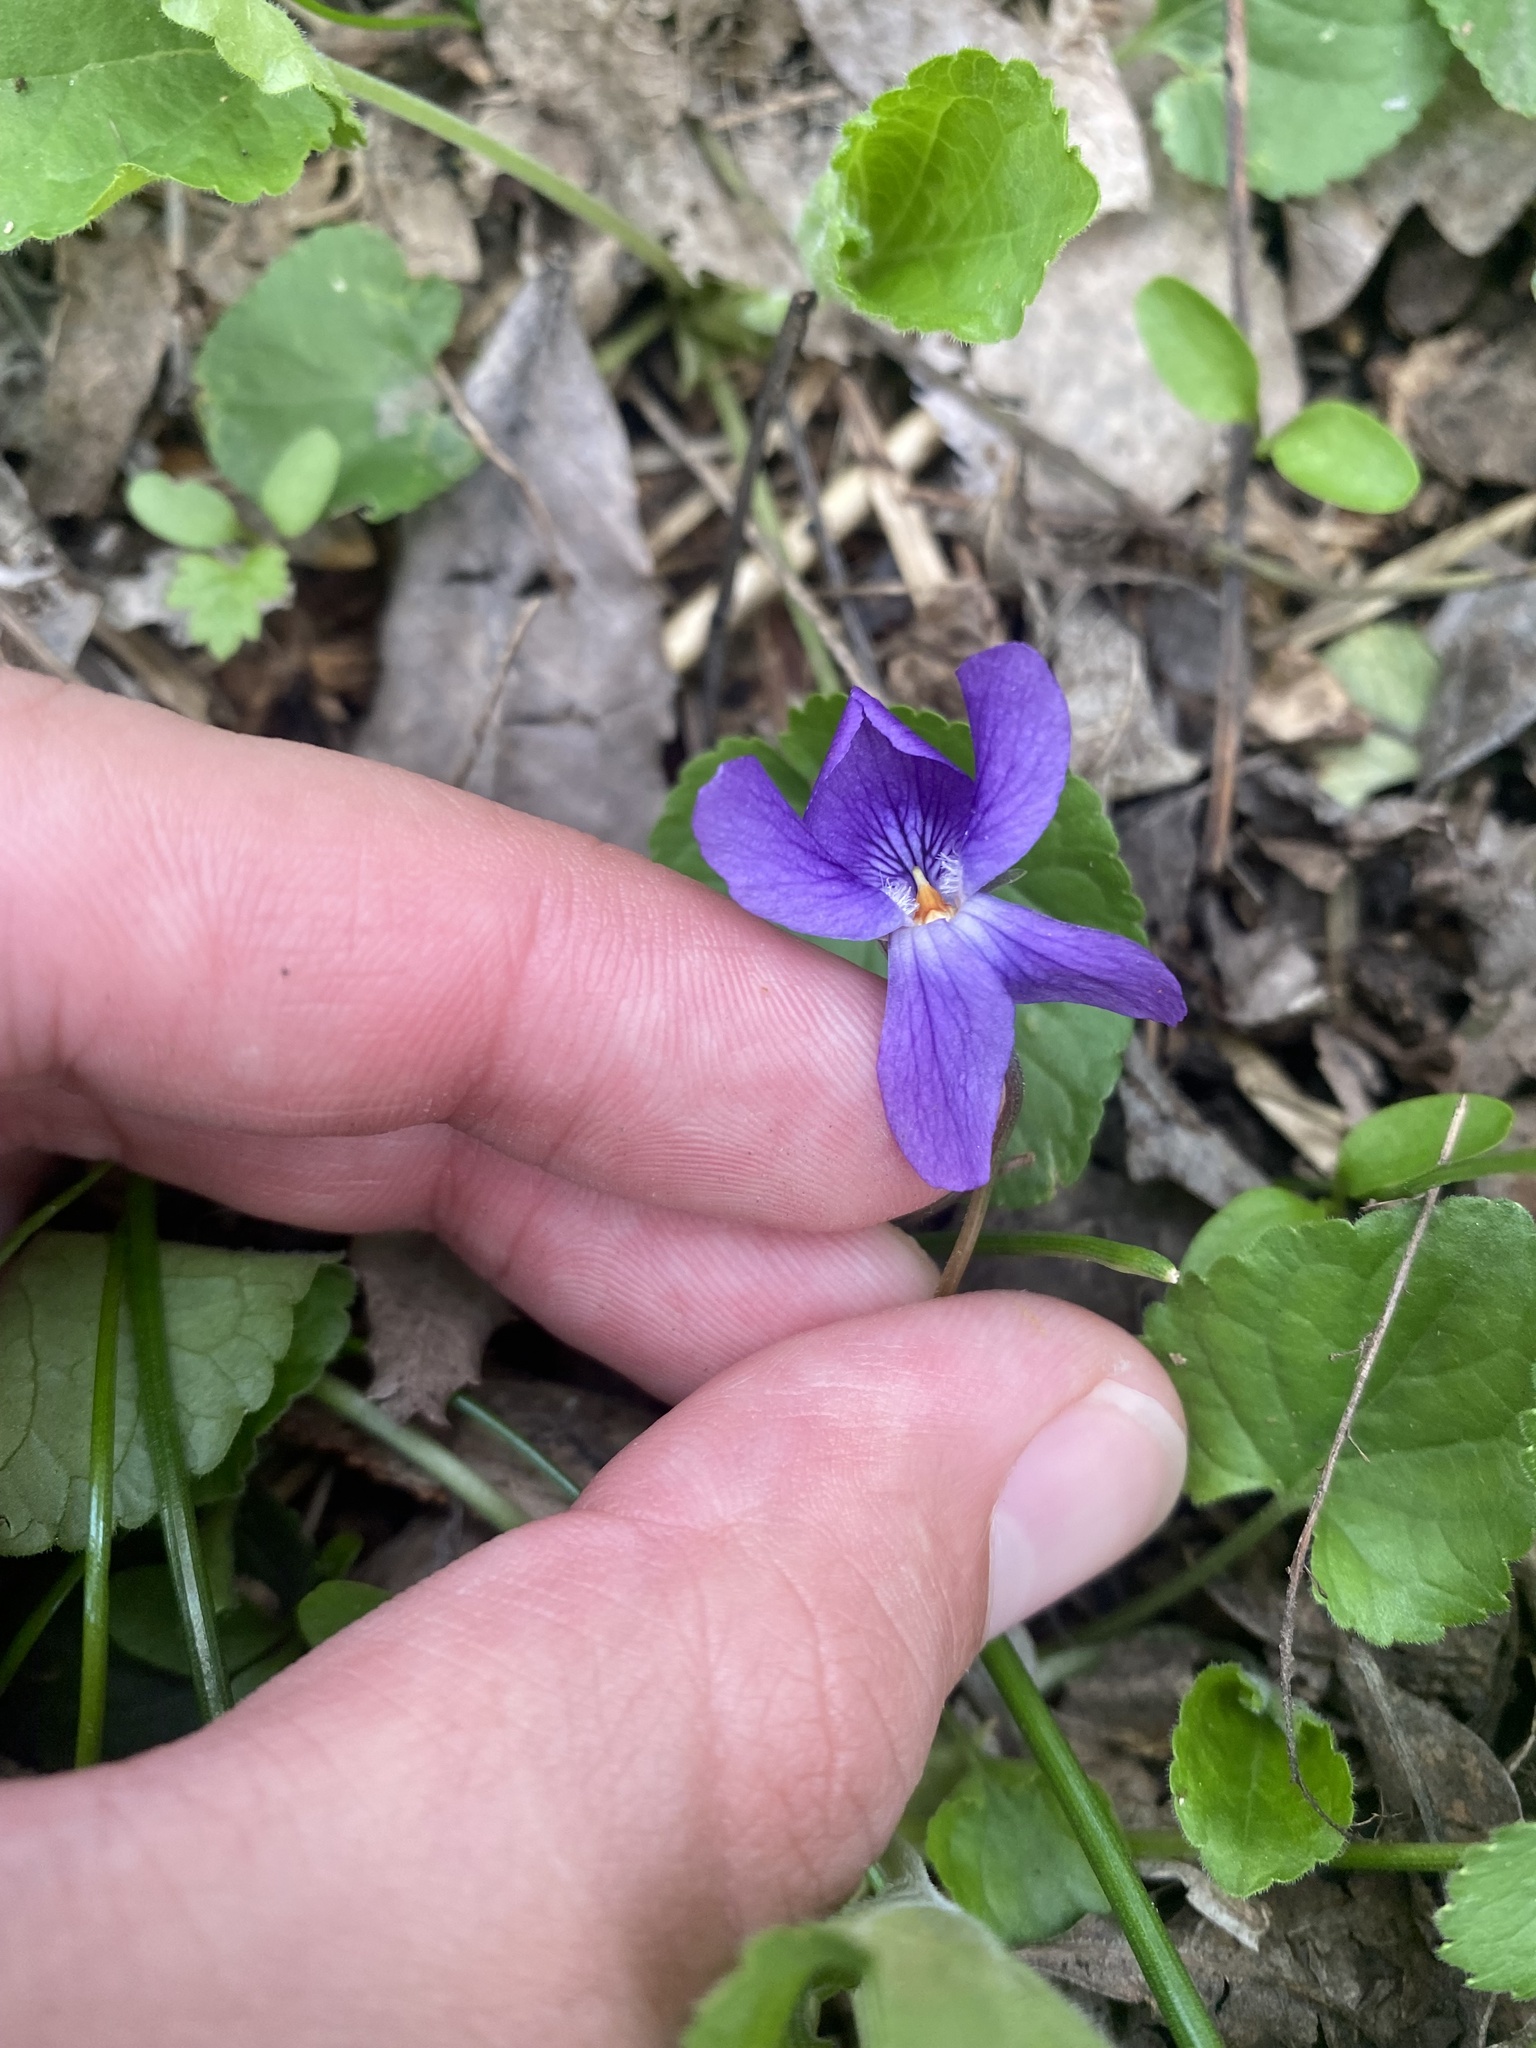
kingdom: Plantae
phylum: Tracheophyta
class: Magnoliopsida
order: Malpighiales
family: Violaceae
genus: Viola
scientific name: Viola odorata
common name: Sweet violet
